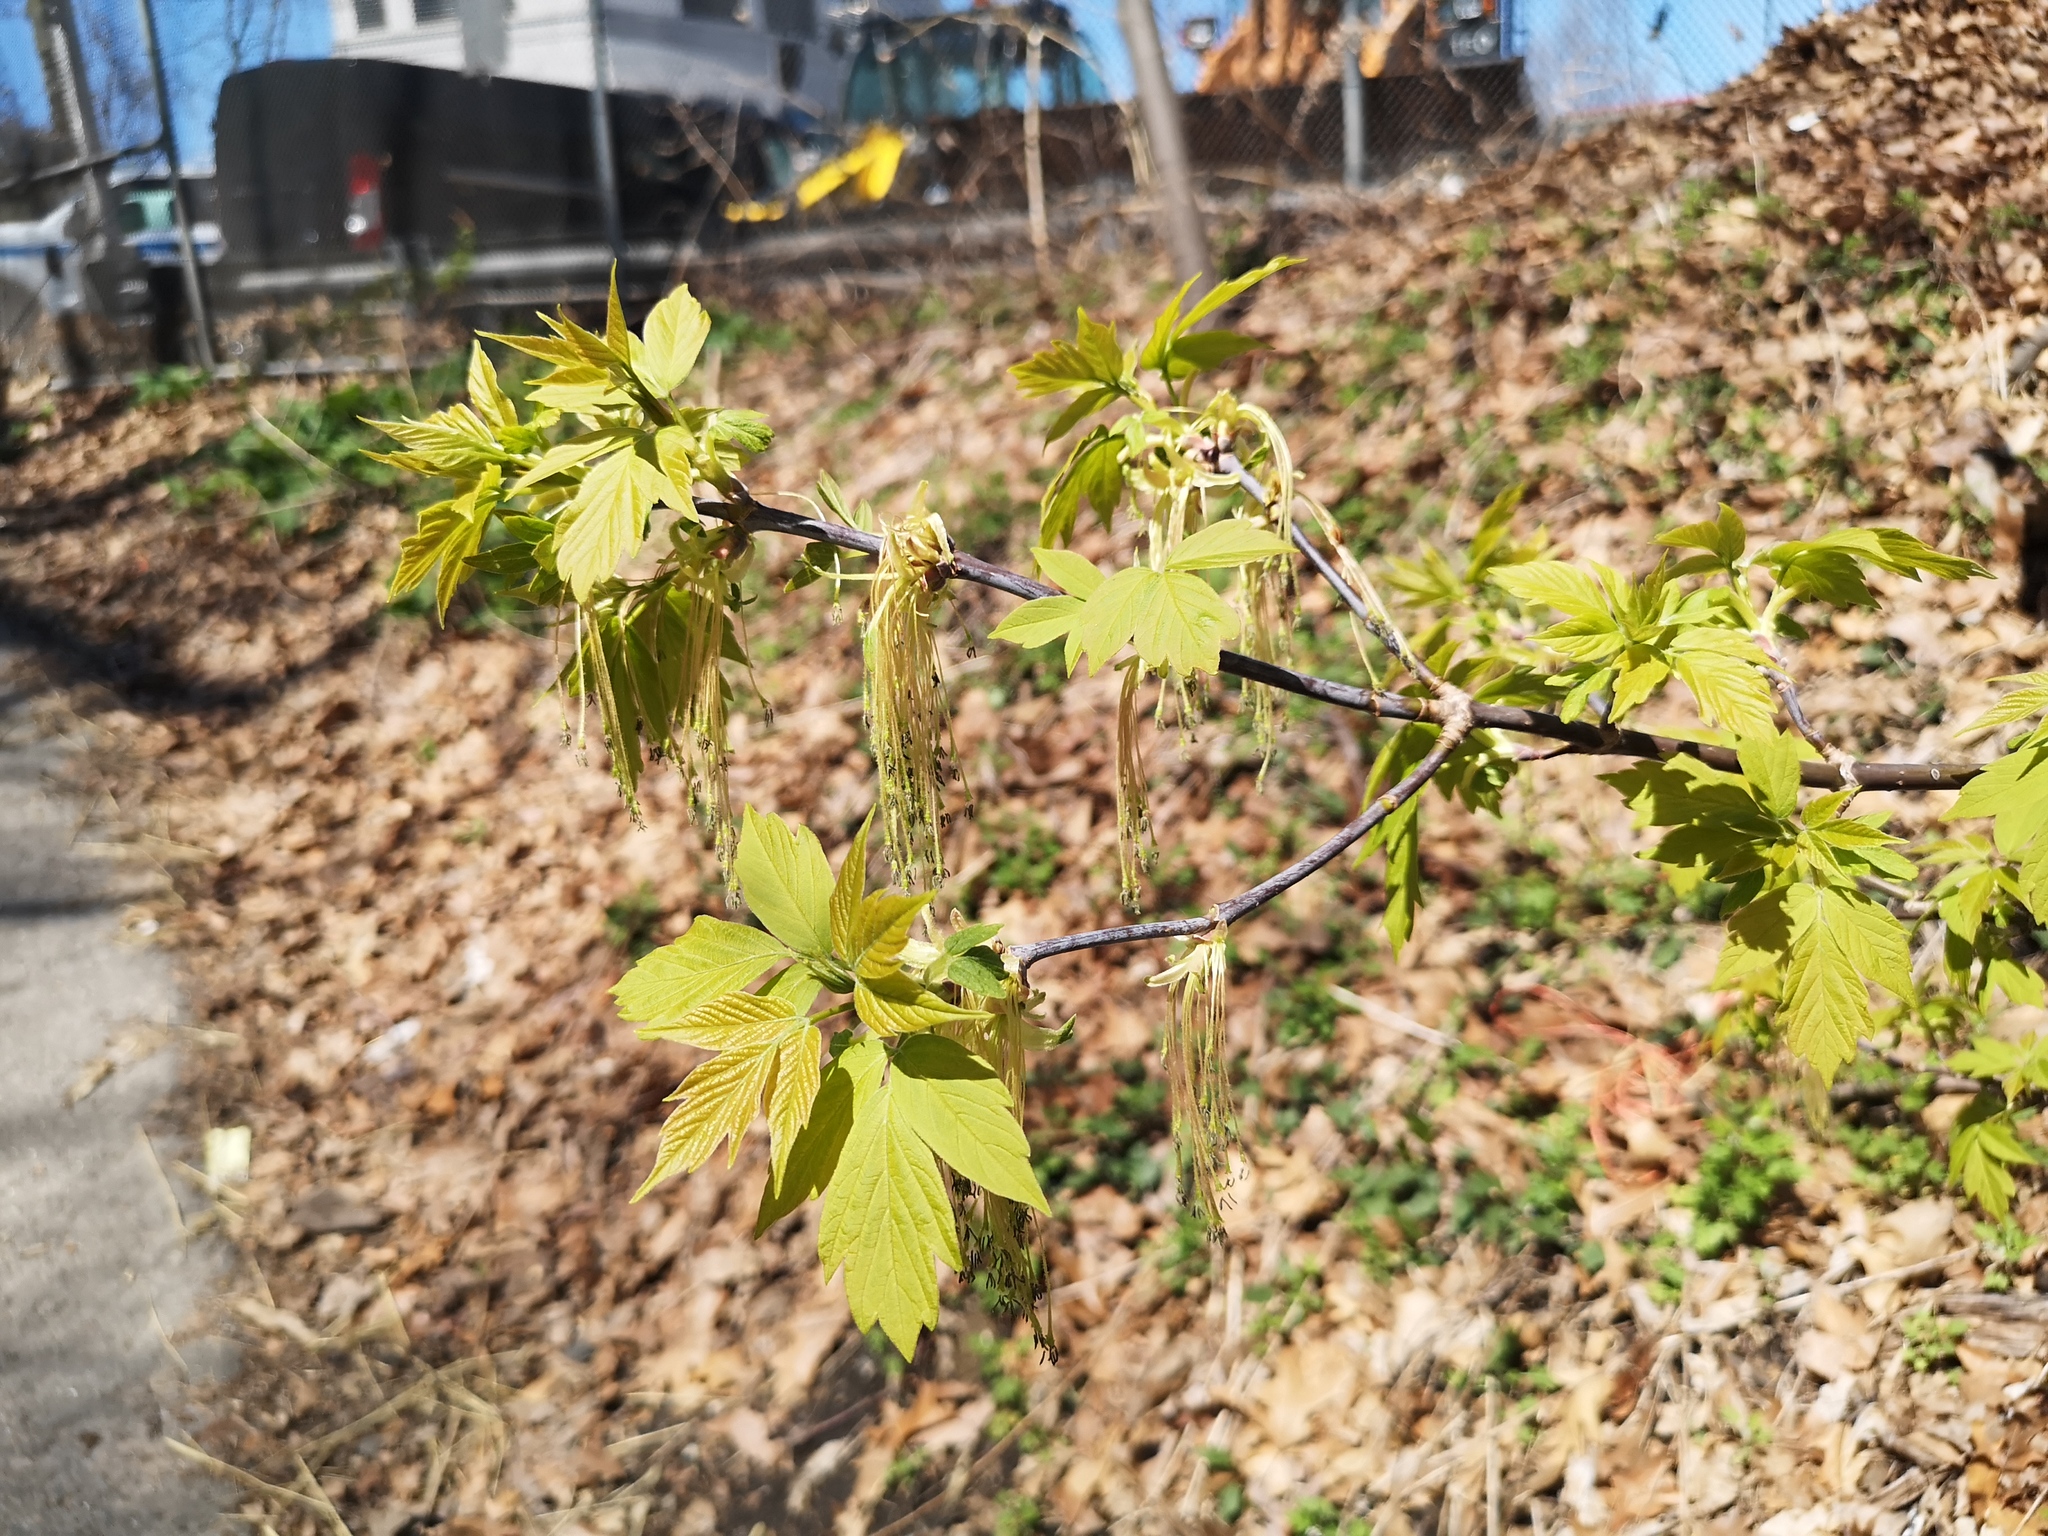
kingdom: Plantae
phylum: Tracheophyta
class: Magnoliopsida
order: Sapindales
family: Sapindaceae
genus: Acer
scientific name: Acer negundo
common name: Ashleaf maple
